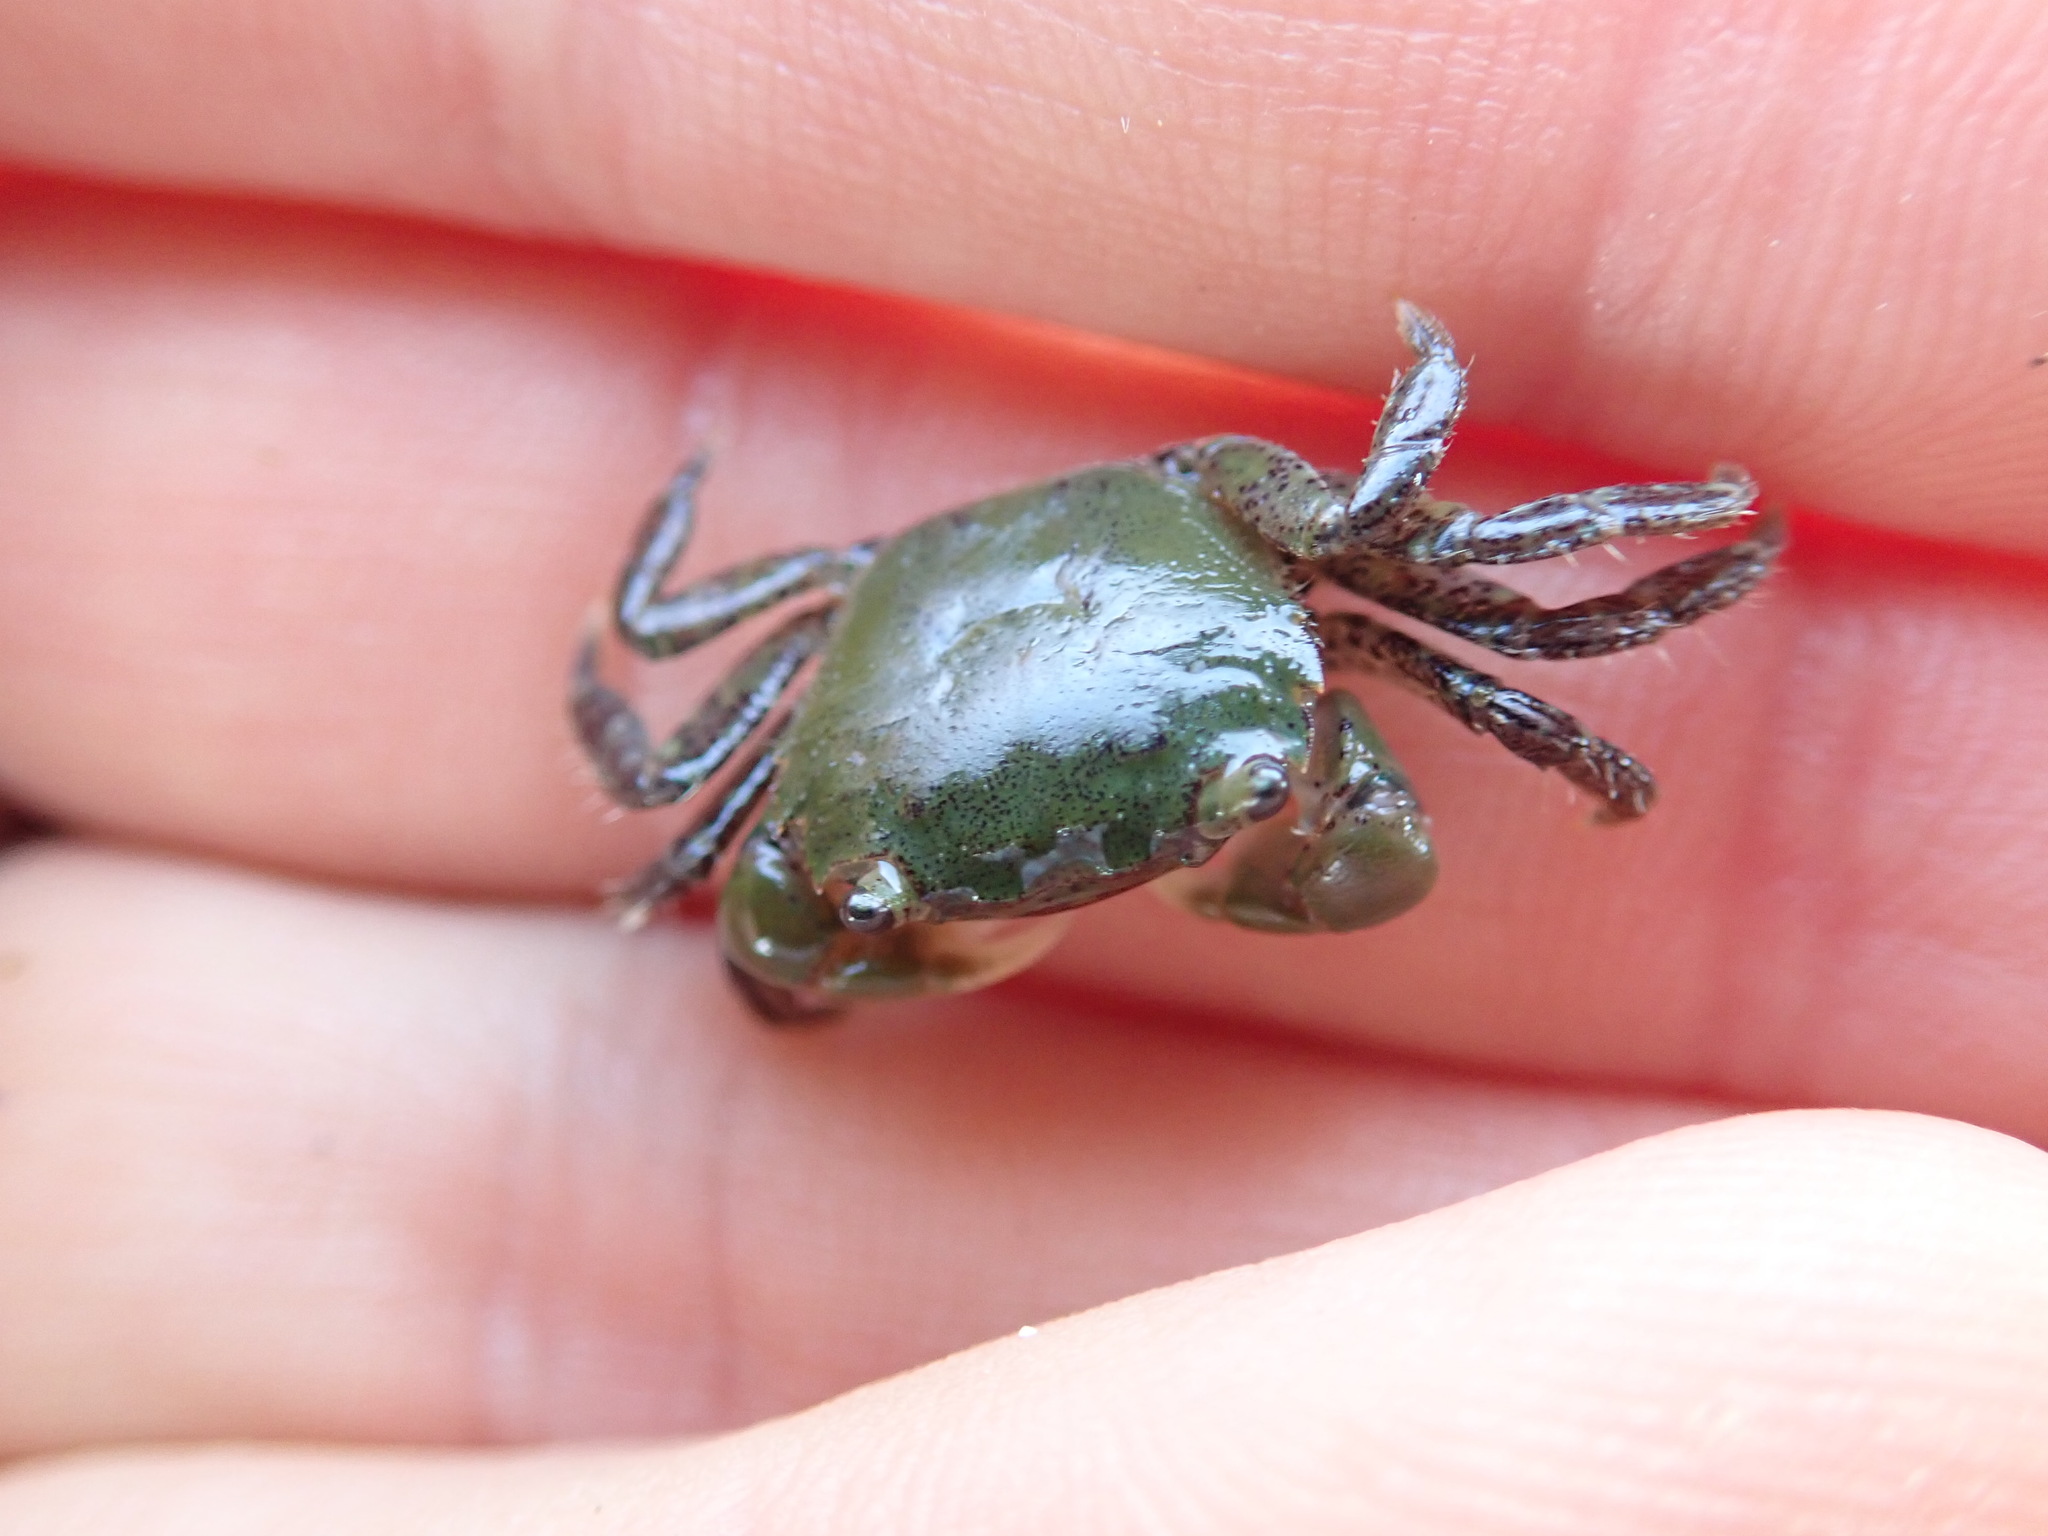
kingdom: Animalia
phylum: Arthropoda
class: Malacostraca
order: Decapoda
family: Varunidae
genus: Hemigrapsus
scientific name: Hemigrapsus oregonensis
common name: Yellow shore crab
